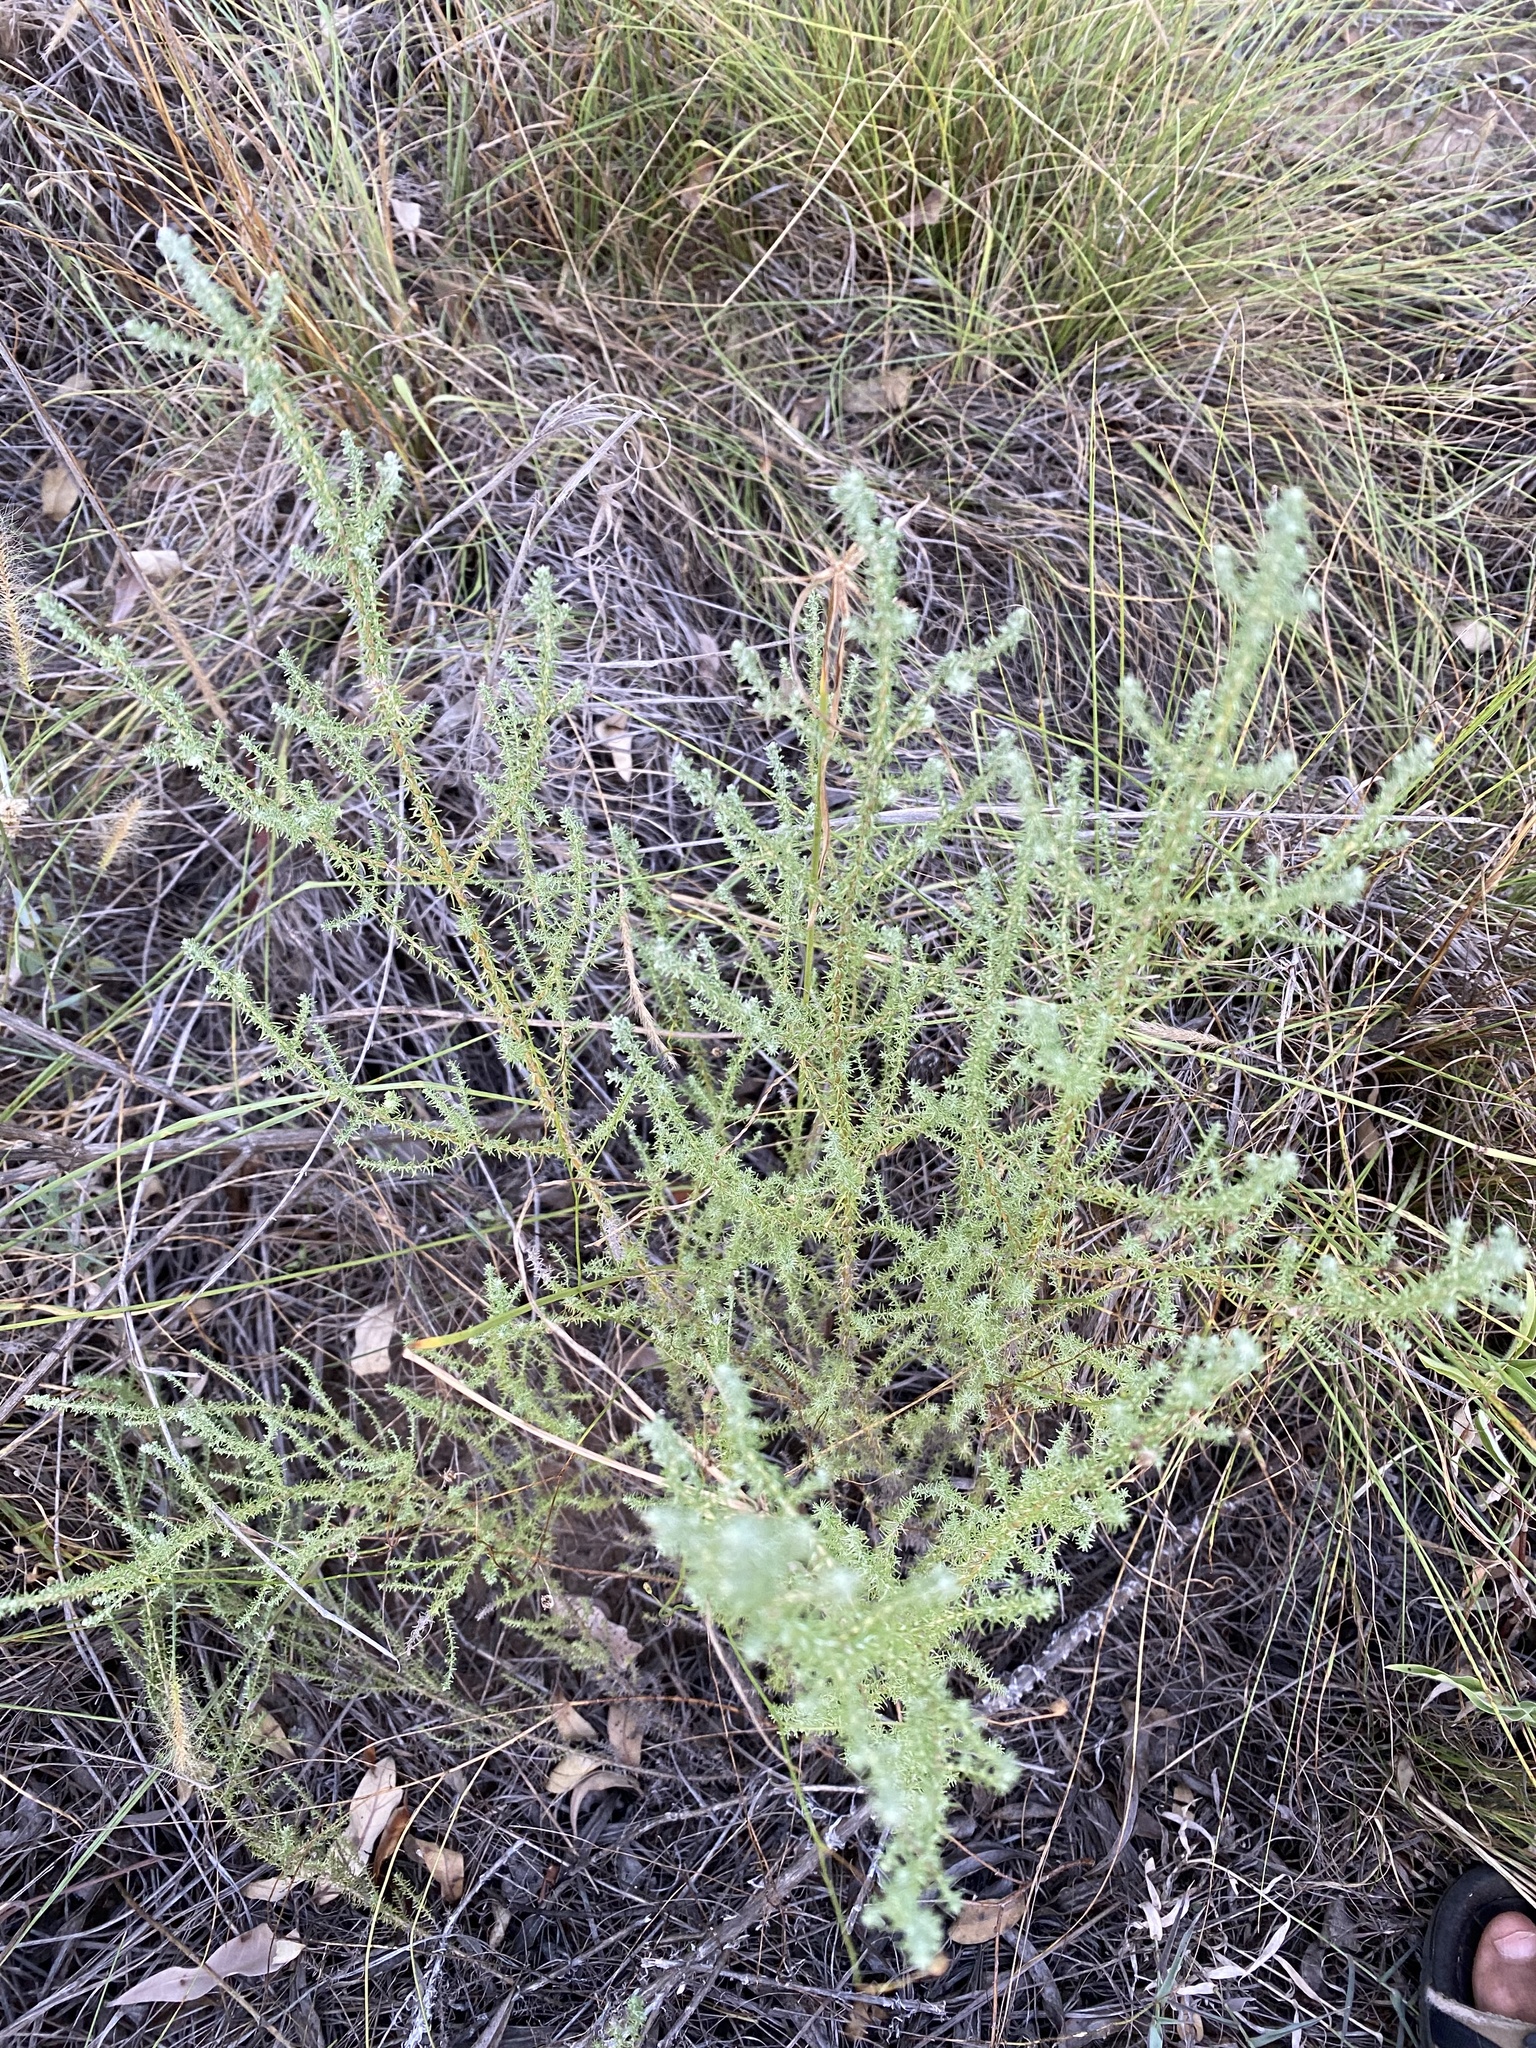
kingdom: Plantae
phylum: Tracheophyta
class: Magnoliopsida
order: Asterales
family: Asteraceae
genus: Seriphium
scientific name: Seriphium
